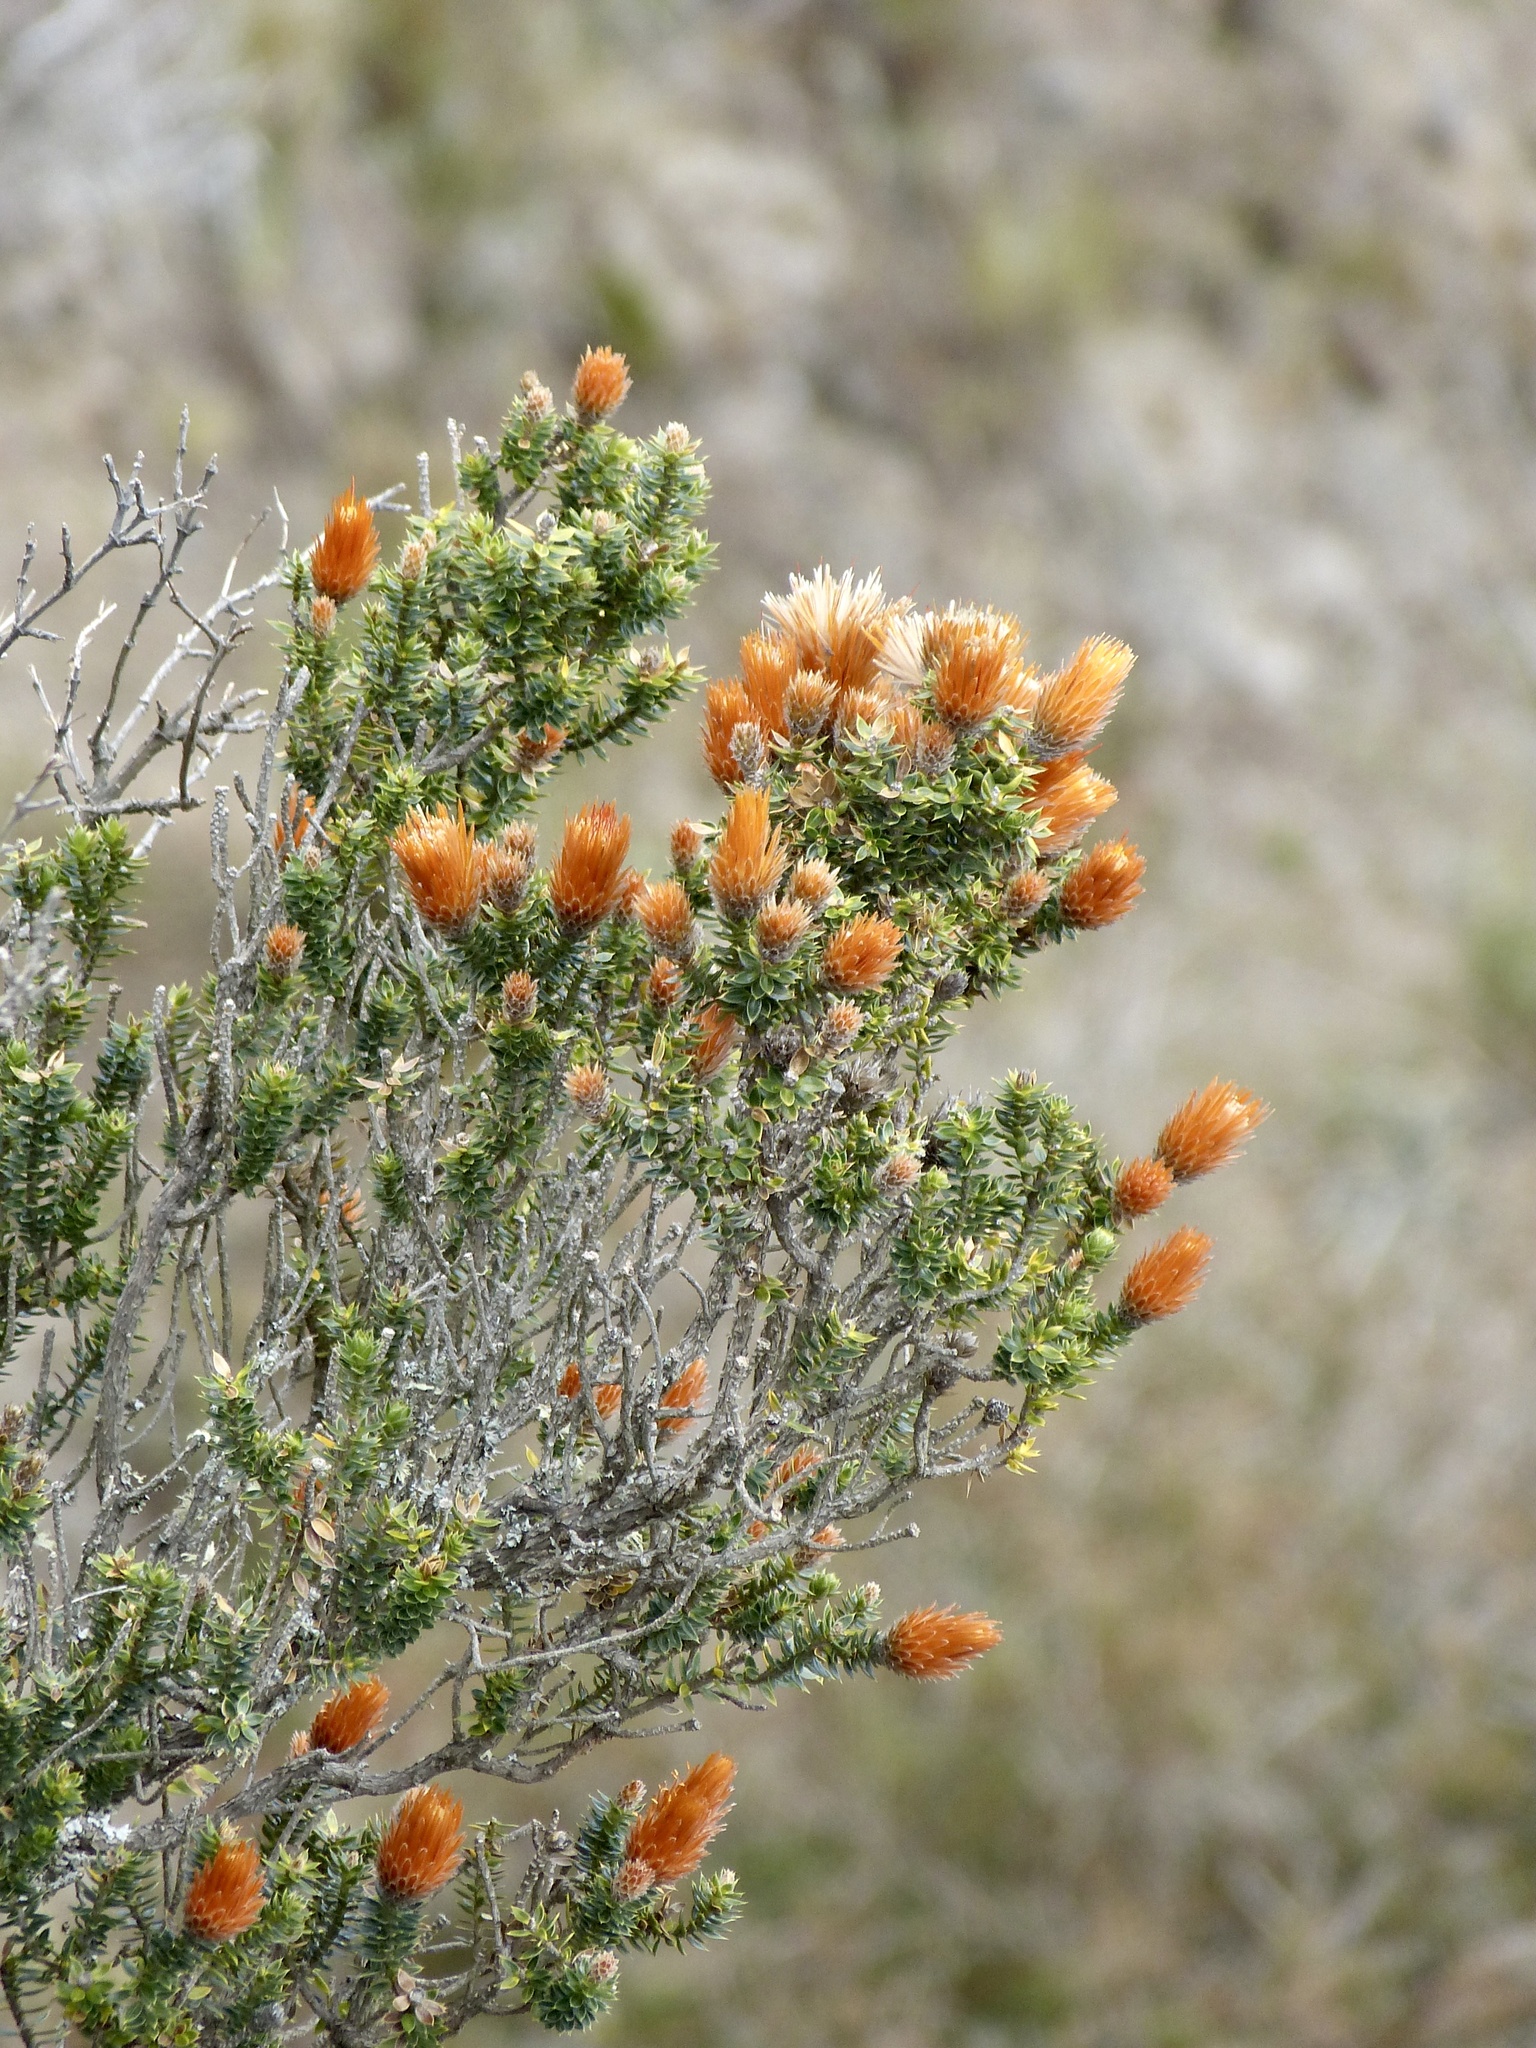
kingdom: Plantae
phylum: Tracheophyta
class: Magnoliopsida
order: Asterales
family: Asteraceae
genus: Chuquiraga
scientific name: Chuquiraga jussieui
